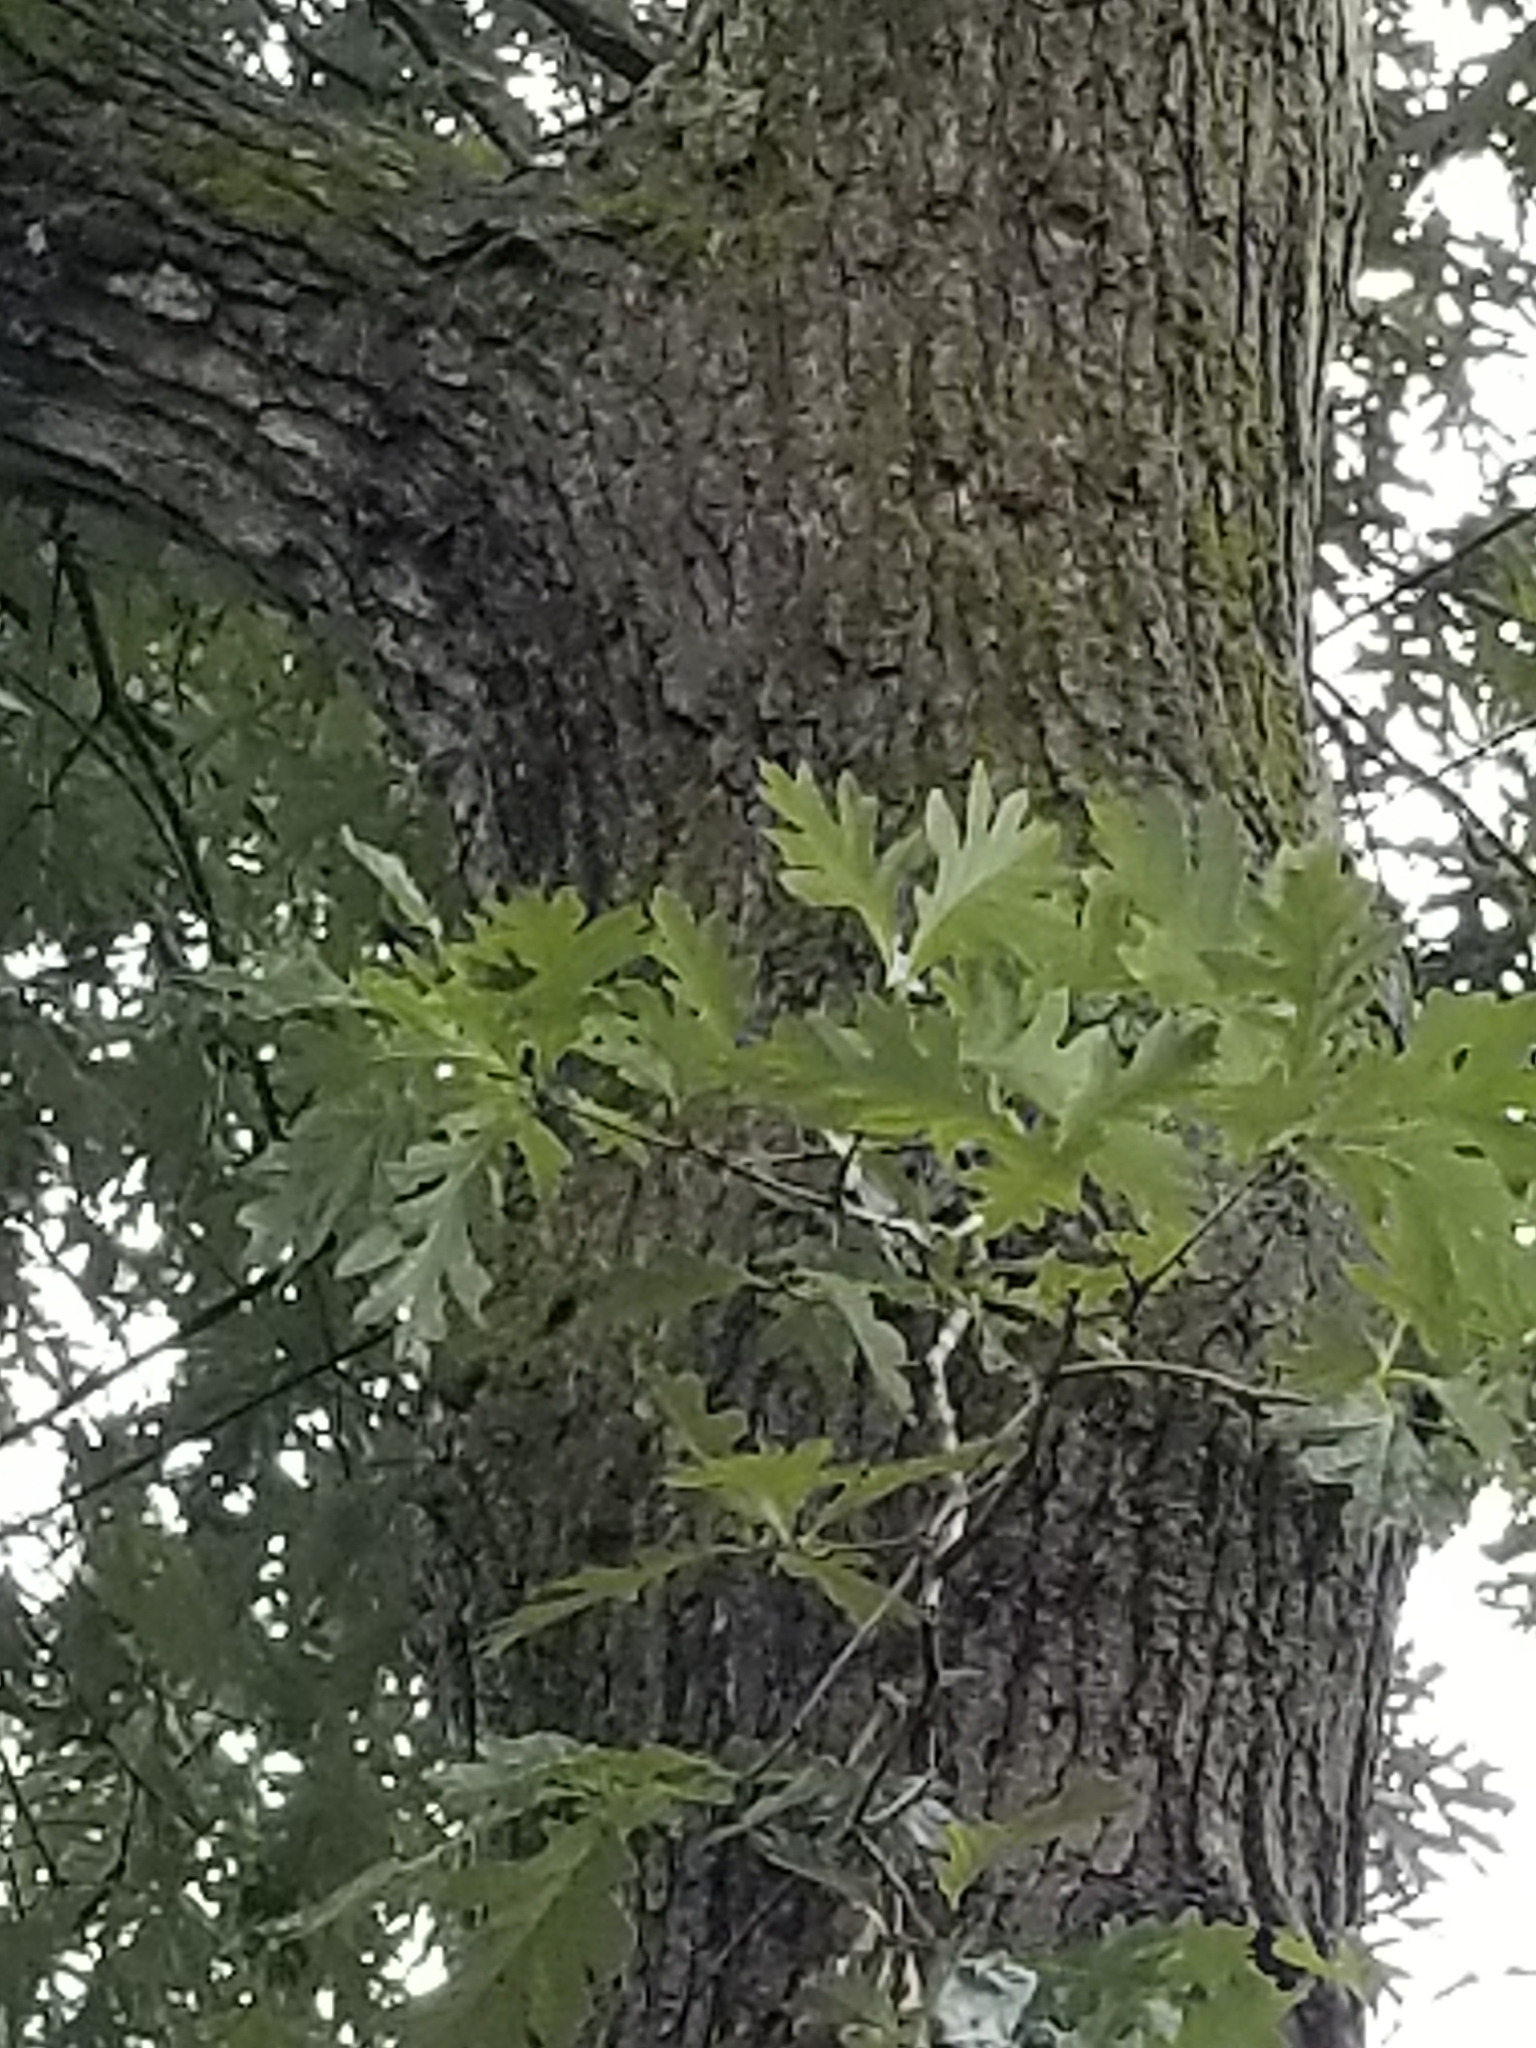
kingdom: Plantae
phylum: Tracheophyta
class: Magnoliopsida
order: Fagales
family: Fagaceae
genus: Quercus
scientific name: Quercus alba
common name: White oak
